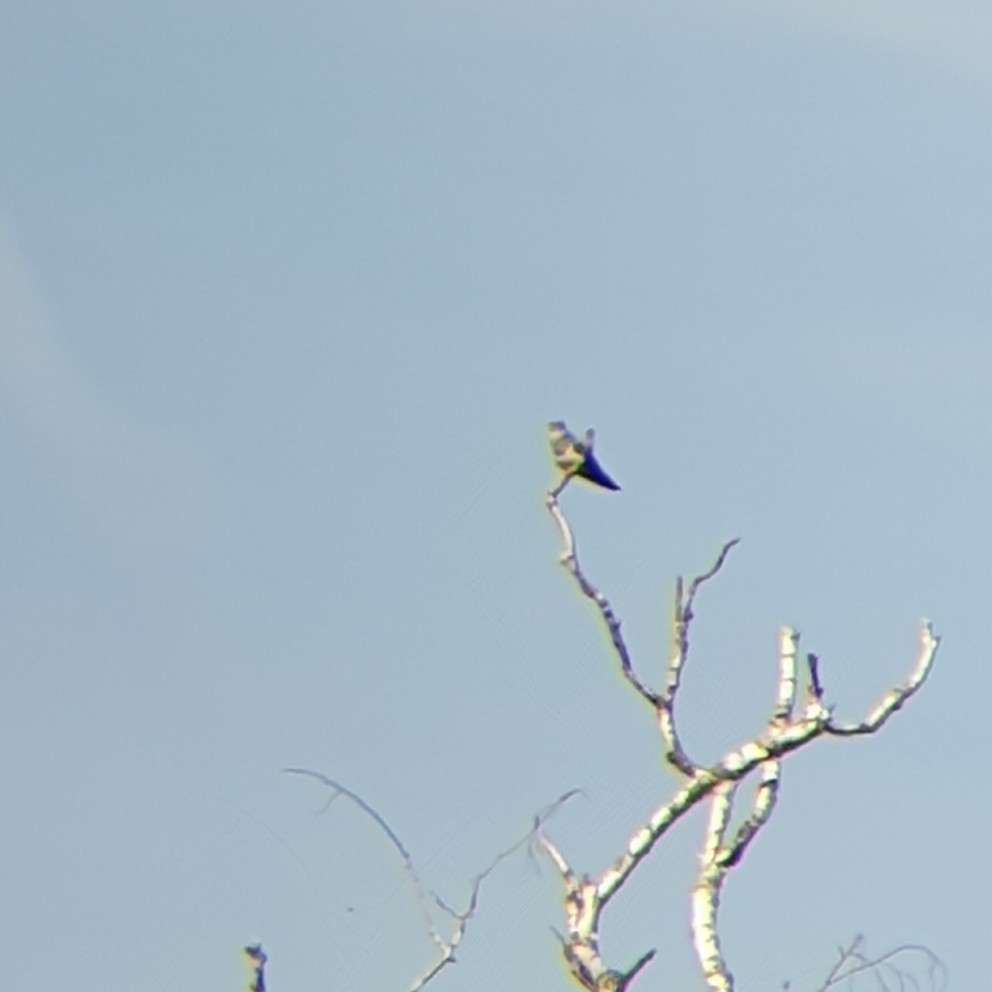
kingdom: Animalia
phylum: Chordata
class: Aves
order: Cuculiformes
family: Cuculidae
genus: Cuculus
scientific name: Cuculus canorus
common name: Common cuckoo
